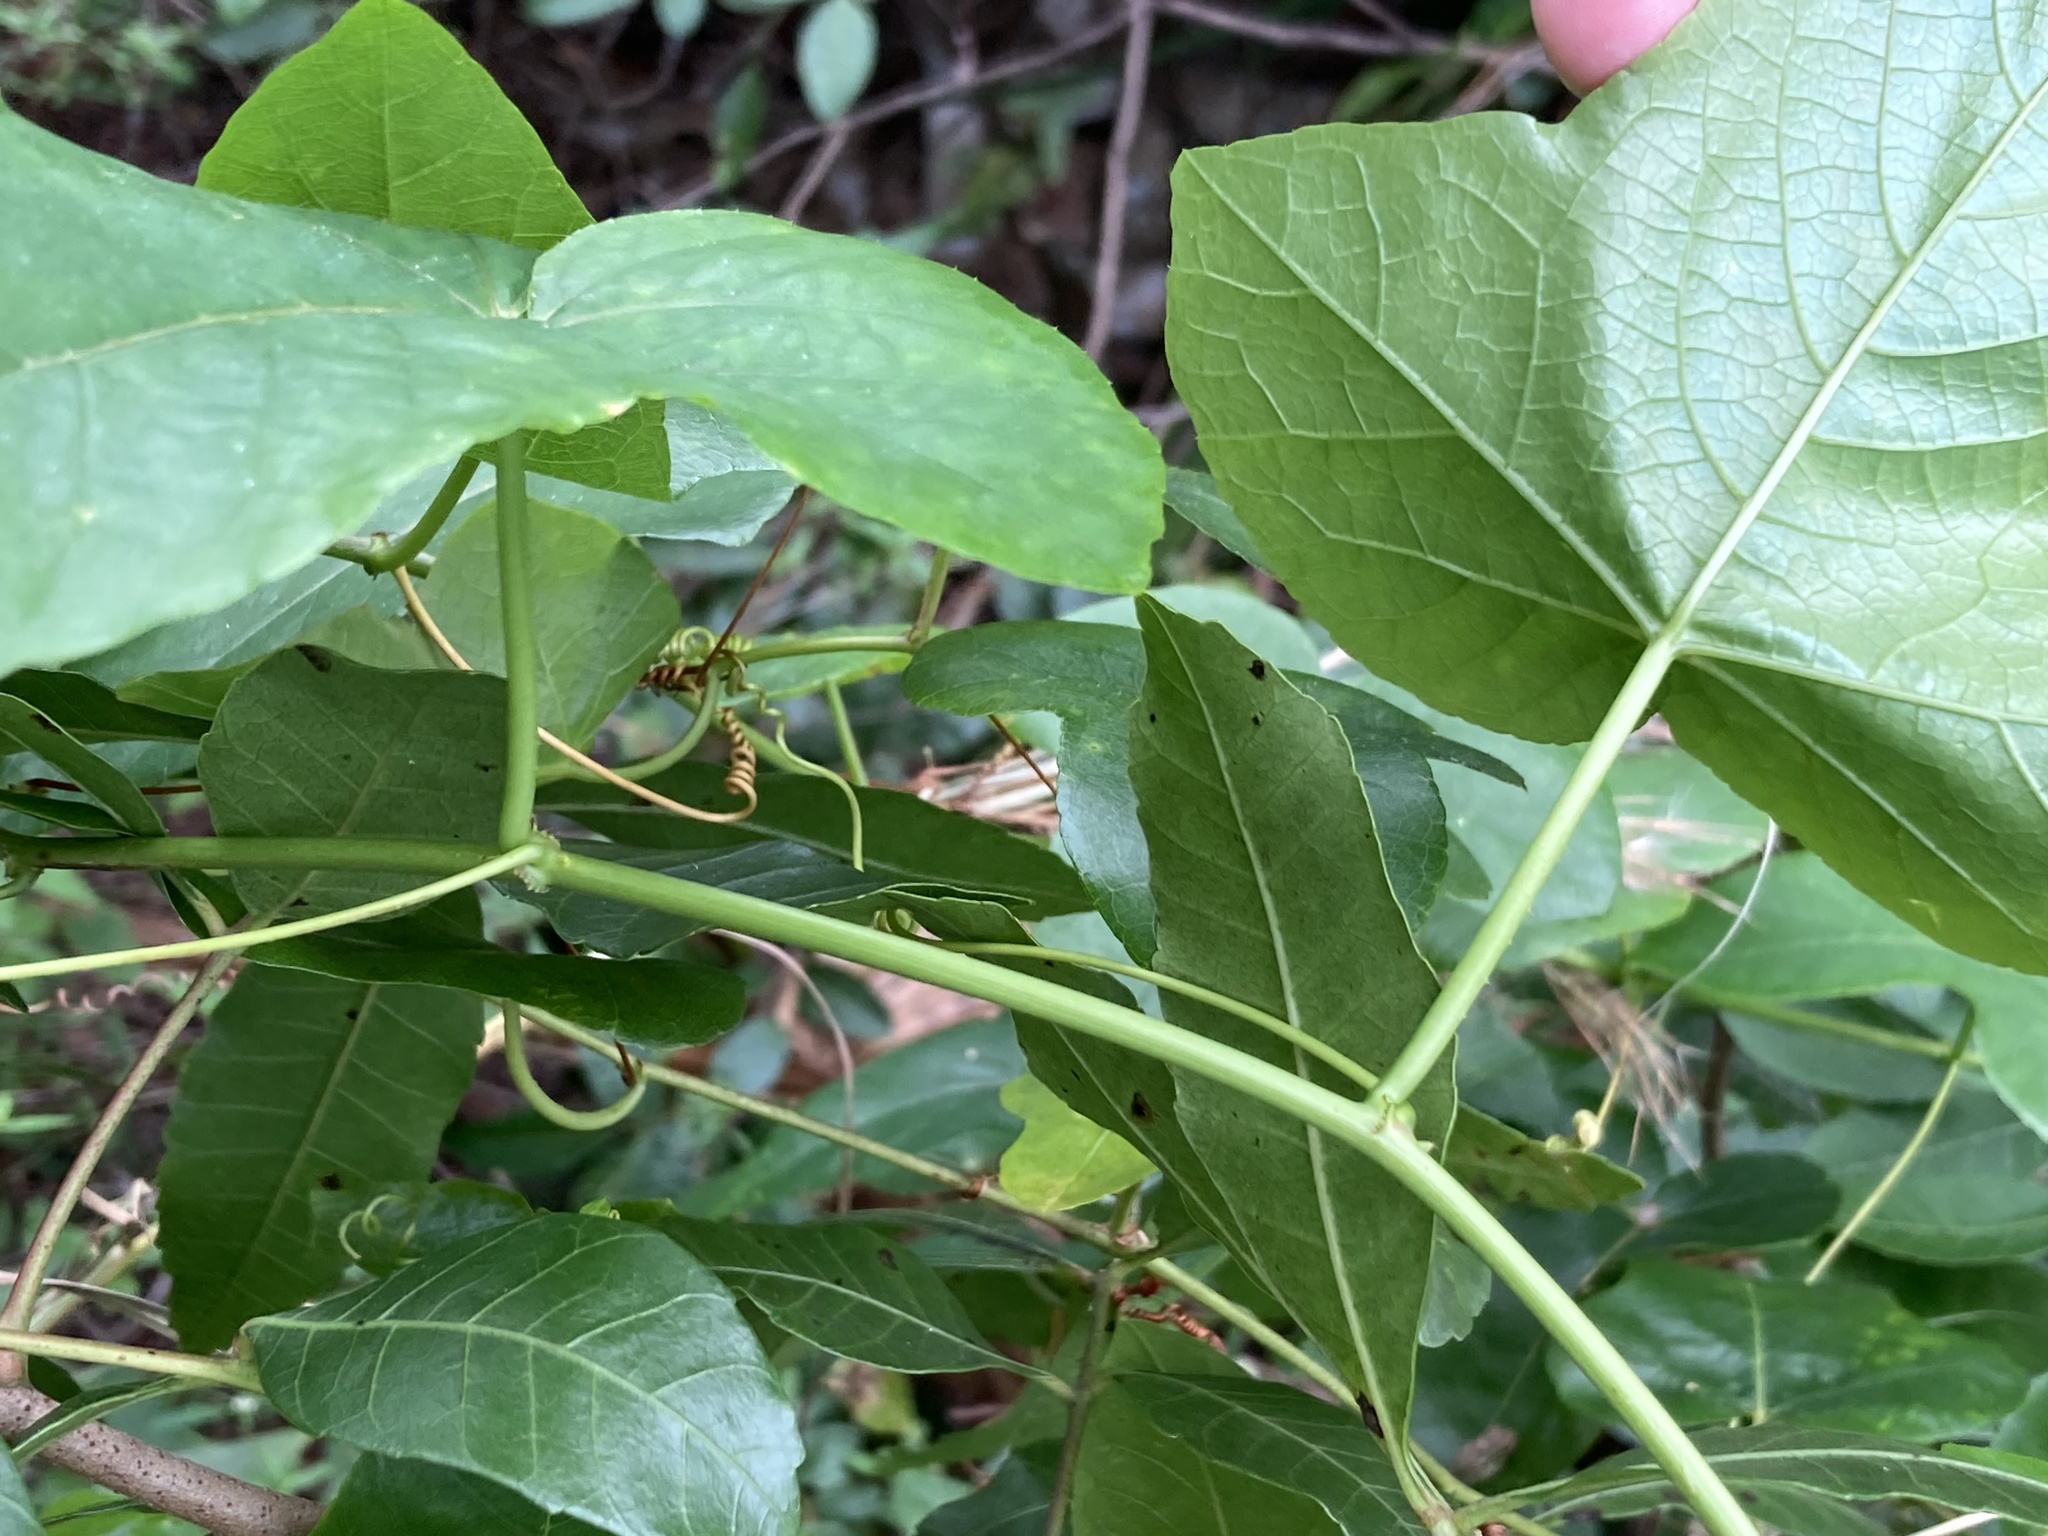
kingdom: Plantae
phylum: Tracheophyta
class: Magnoliopsida
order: Malpighiales
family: Passifloraceae
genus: Passiflora
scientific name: Passiflora ciliata
